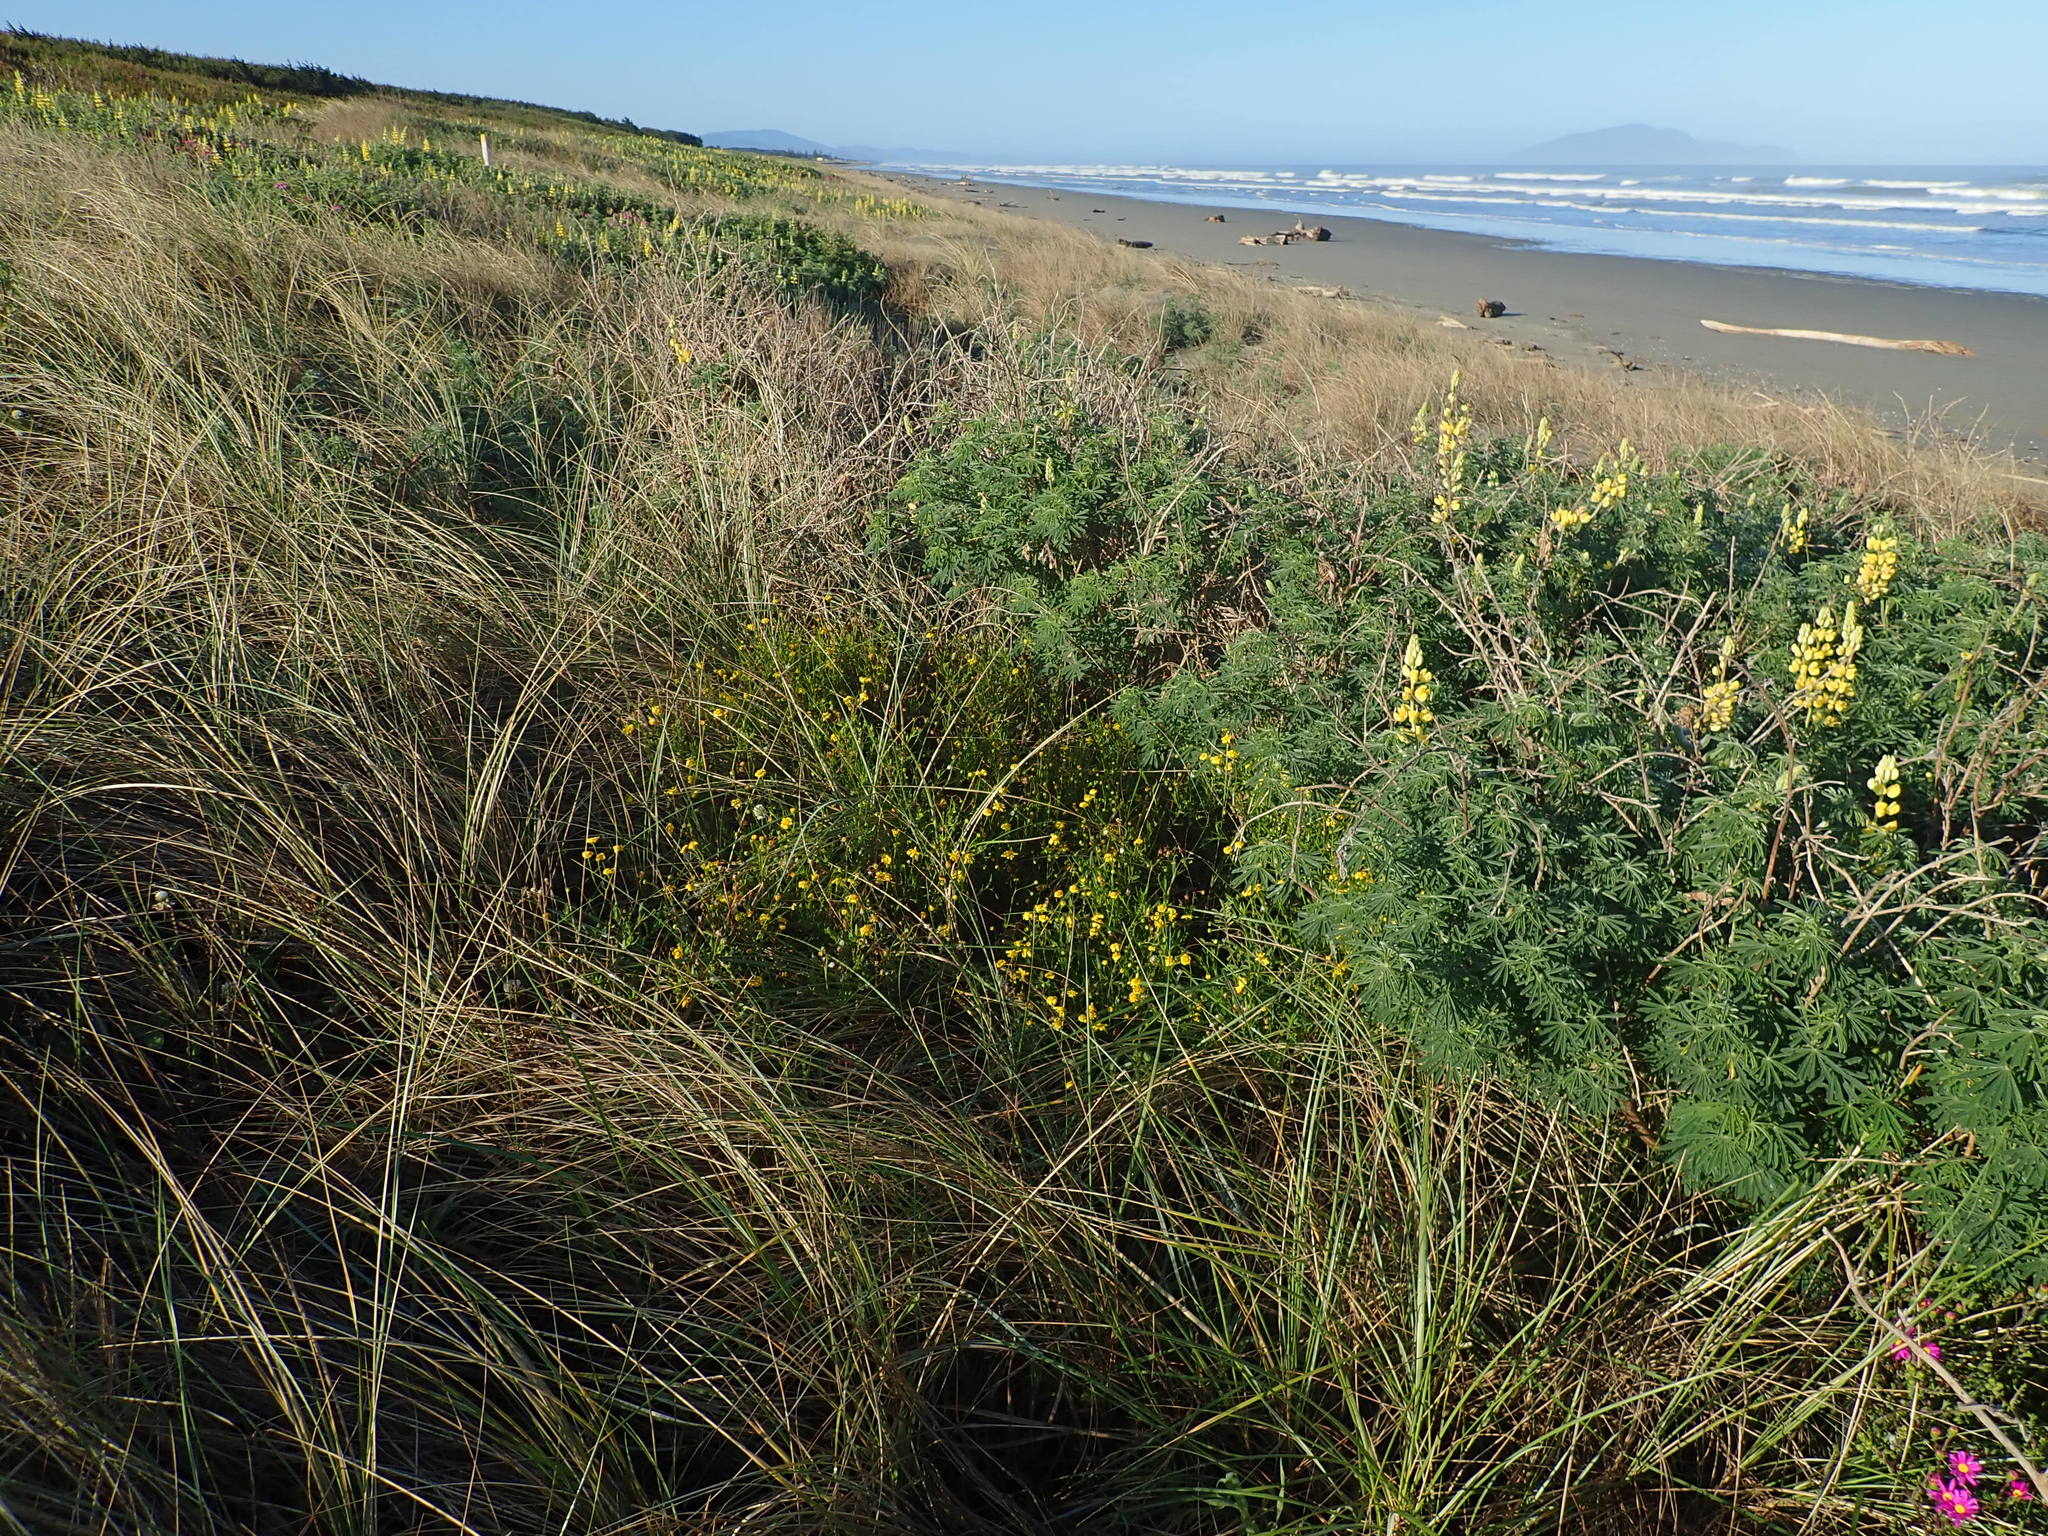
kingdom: Plantae
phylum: Tracheophyta
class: Magnoliopsida
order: Asterales
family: Asteraceae
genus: Senecio
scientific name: Senecio skirrhodon
